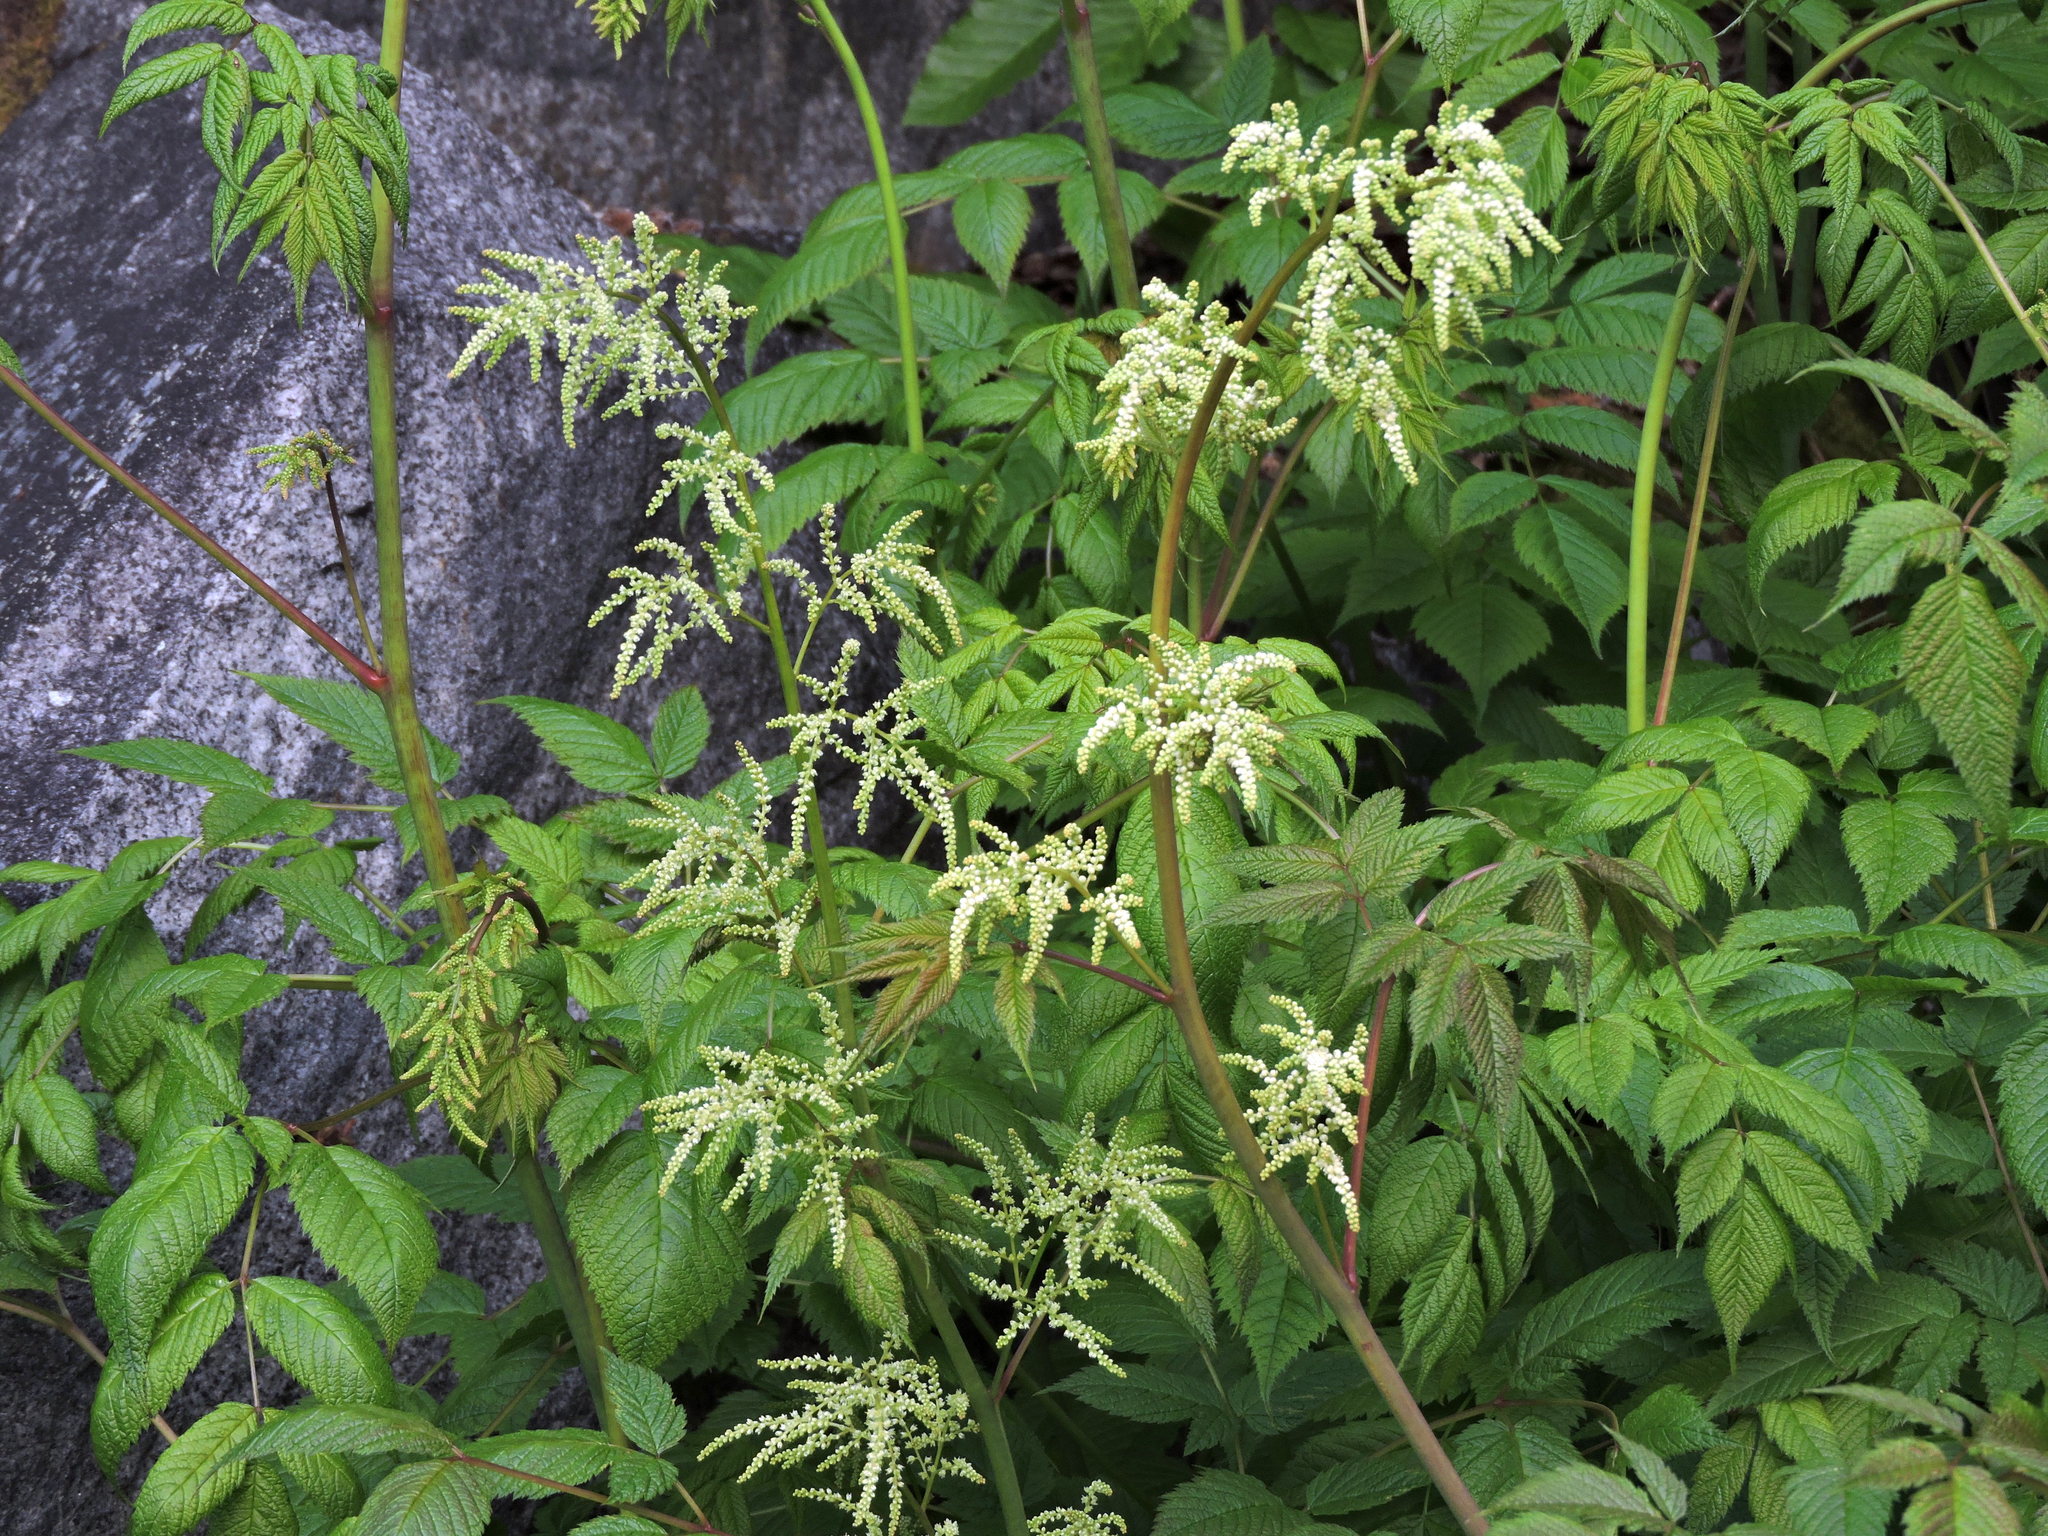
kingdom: Plantae
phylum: Tracheophyta
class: Magnoliopsida
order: Rosales
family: Rosaceae
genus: Aruncus
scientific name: Aruncus dioicus
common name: Buck's-beard
